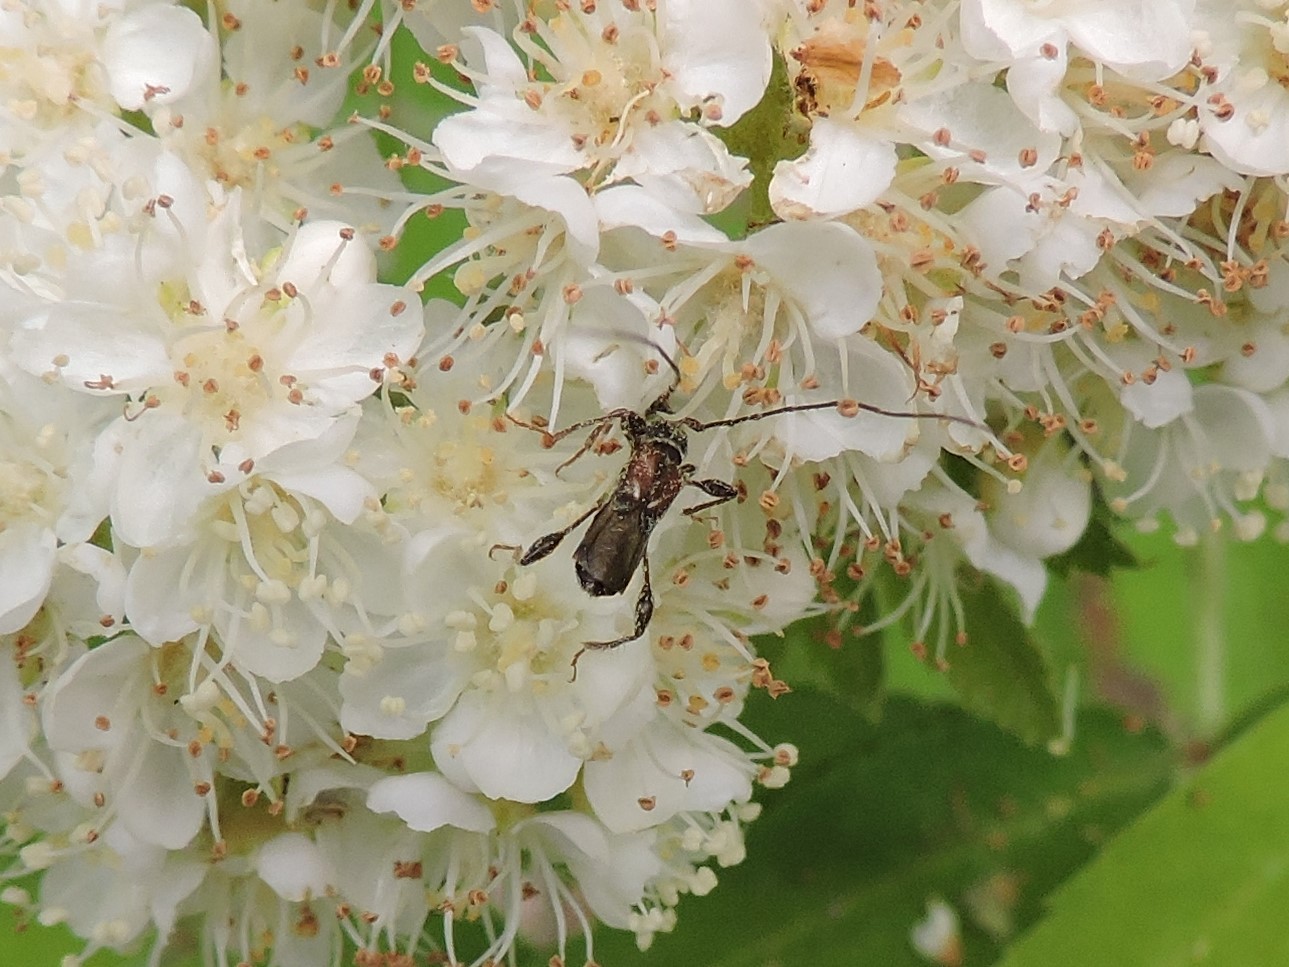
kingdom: Animalia
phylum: Arthropoda
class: Insecta
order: Coleoptera
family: Cerambycidae
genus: Molorchus
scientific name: Molorchus minor
